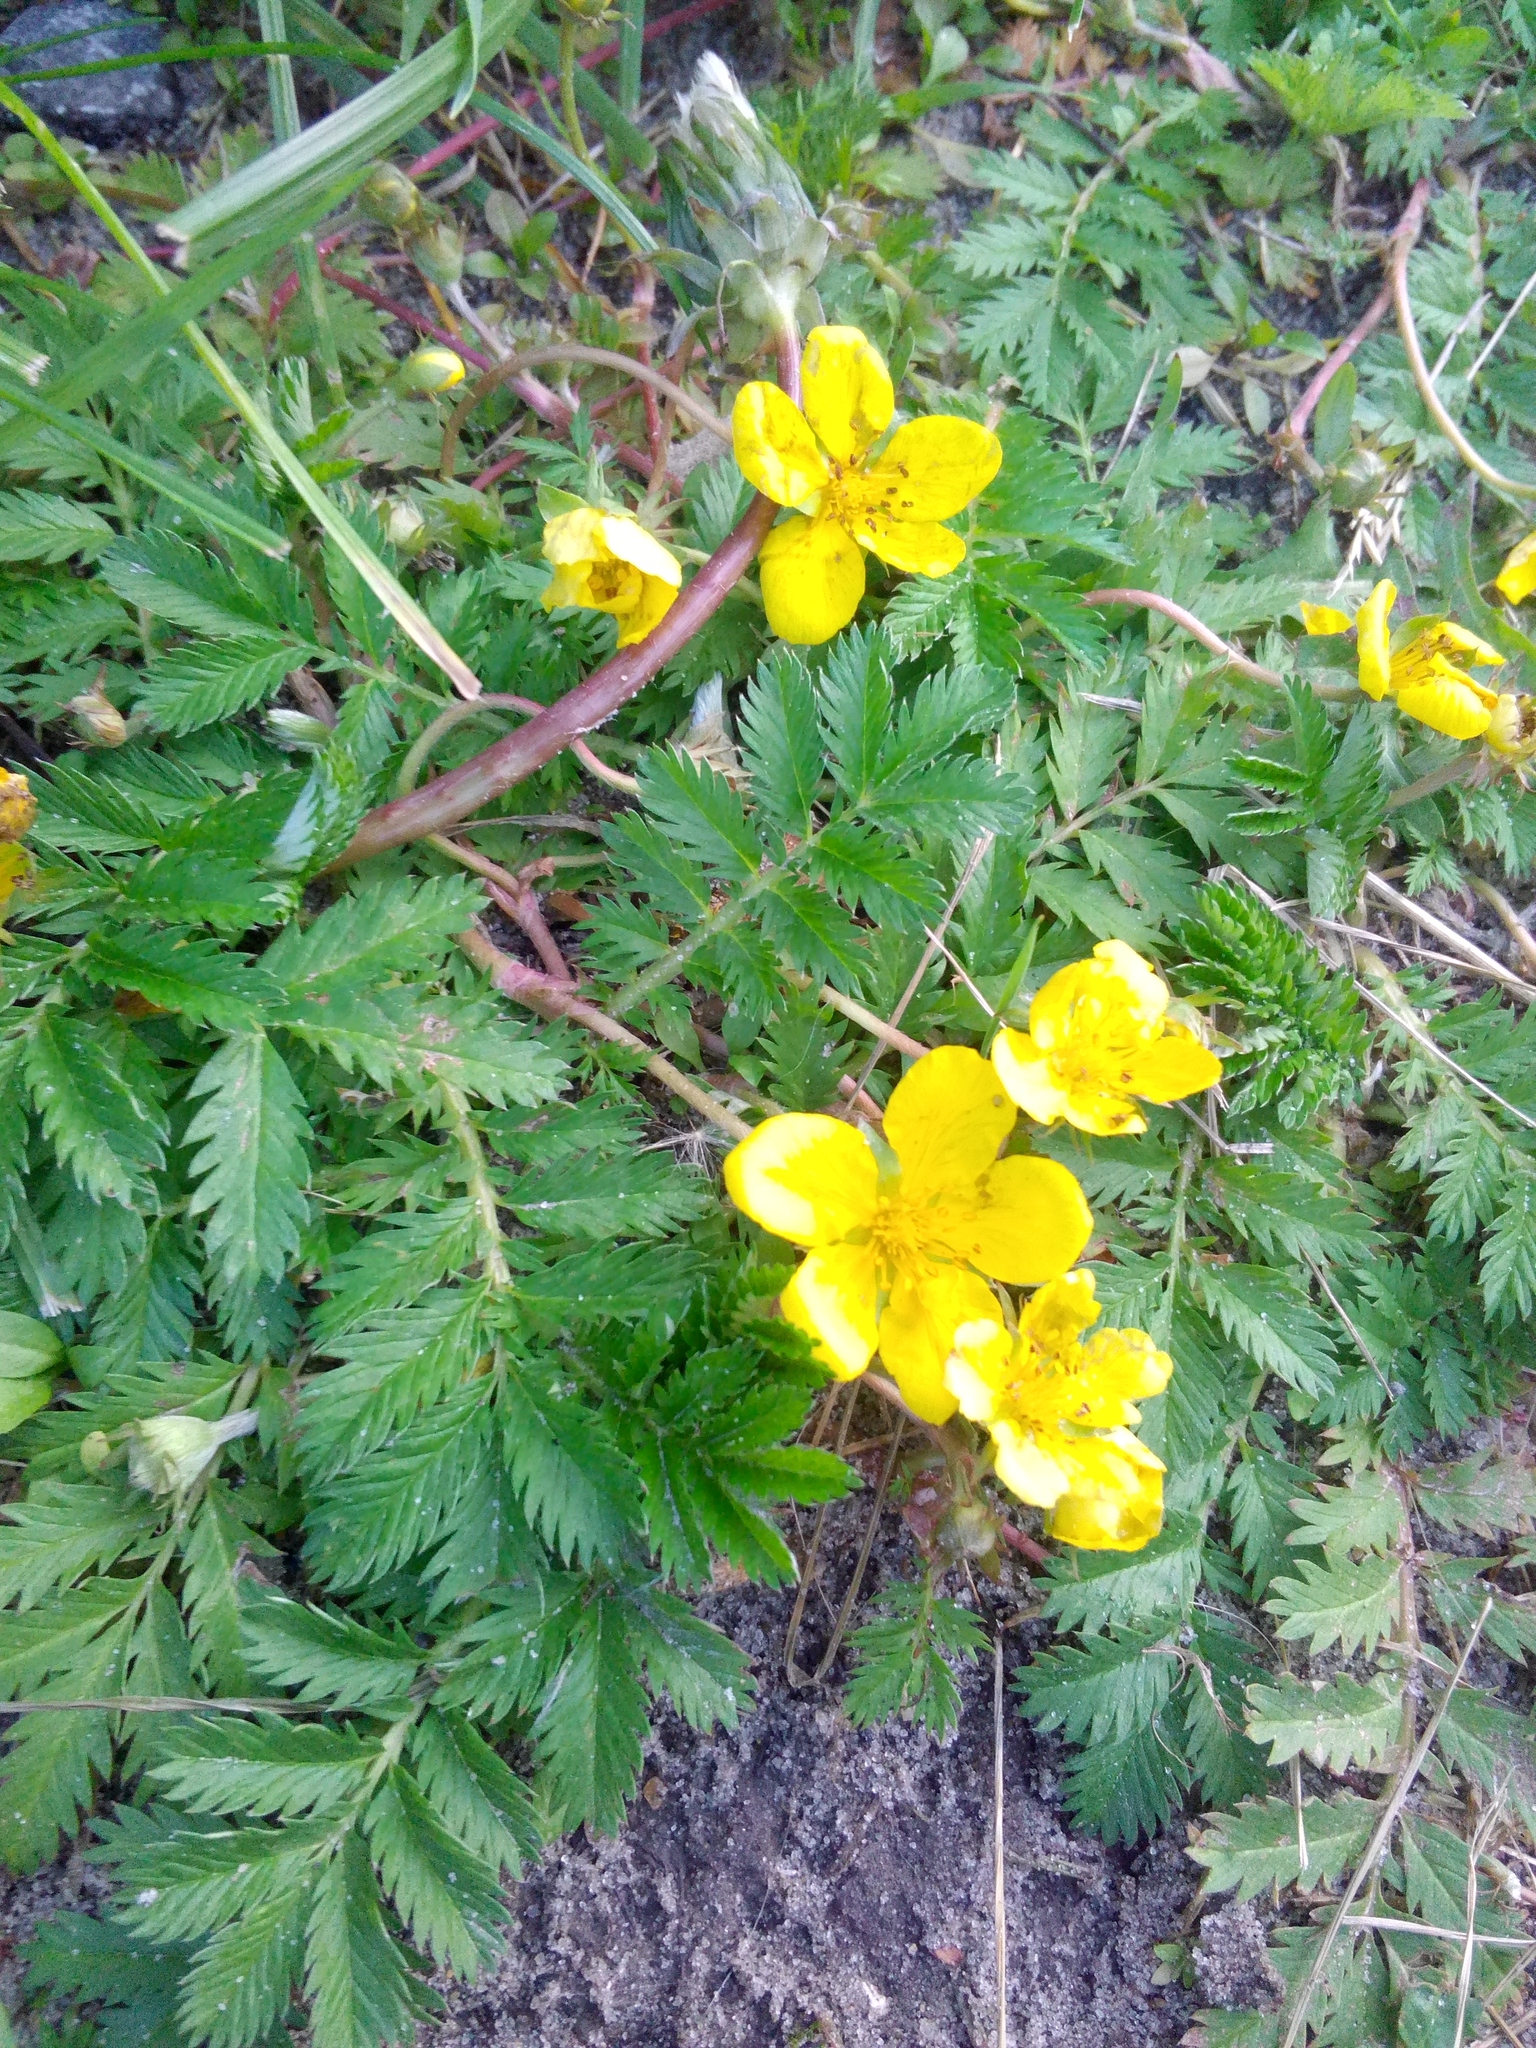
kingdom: Plantae
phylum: Tracheophyta
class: Magnoliopsida
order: Rosales
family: Rosaceae
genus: Argentina
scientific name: Argentina anserina
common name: Common silverweed
